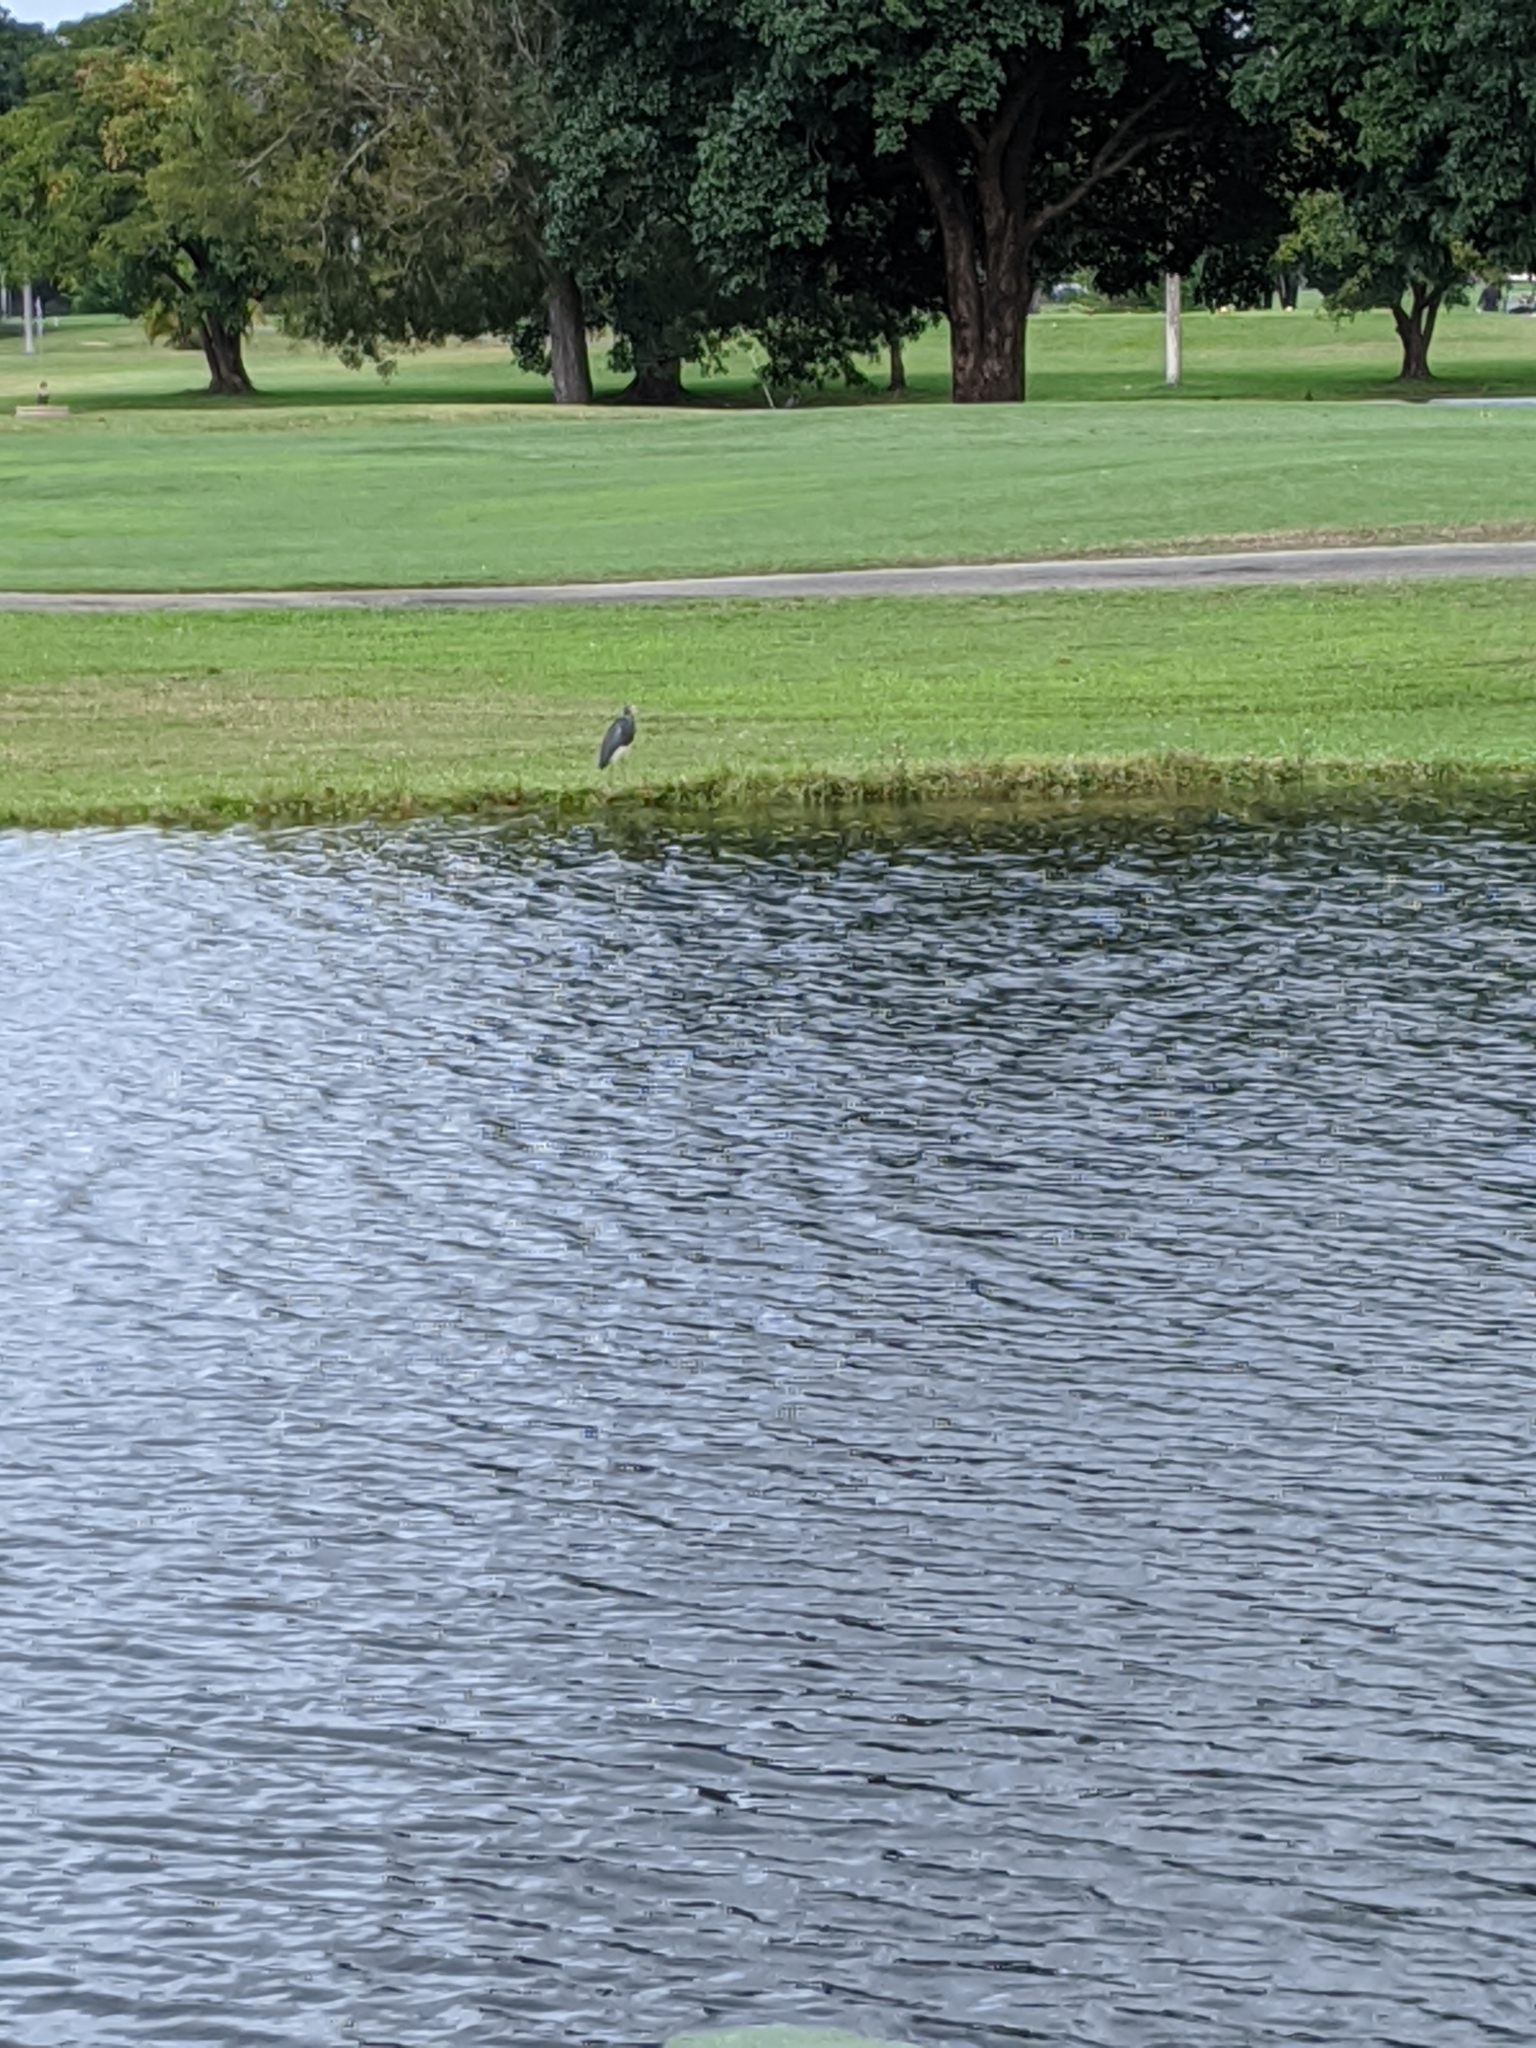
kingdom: Animalia
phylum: Chordata
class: Aves
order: Pelecaniformes
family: Ardeidae
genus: Egretta
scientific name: Egretta tricolor
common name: Tricolored heron
